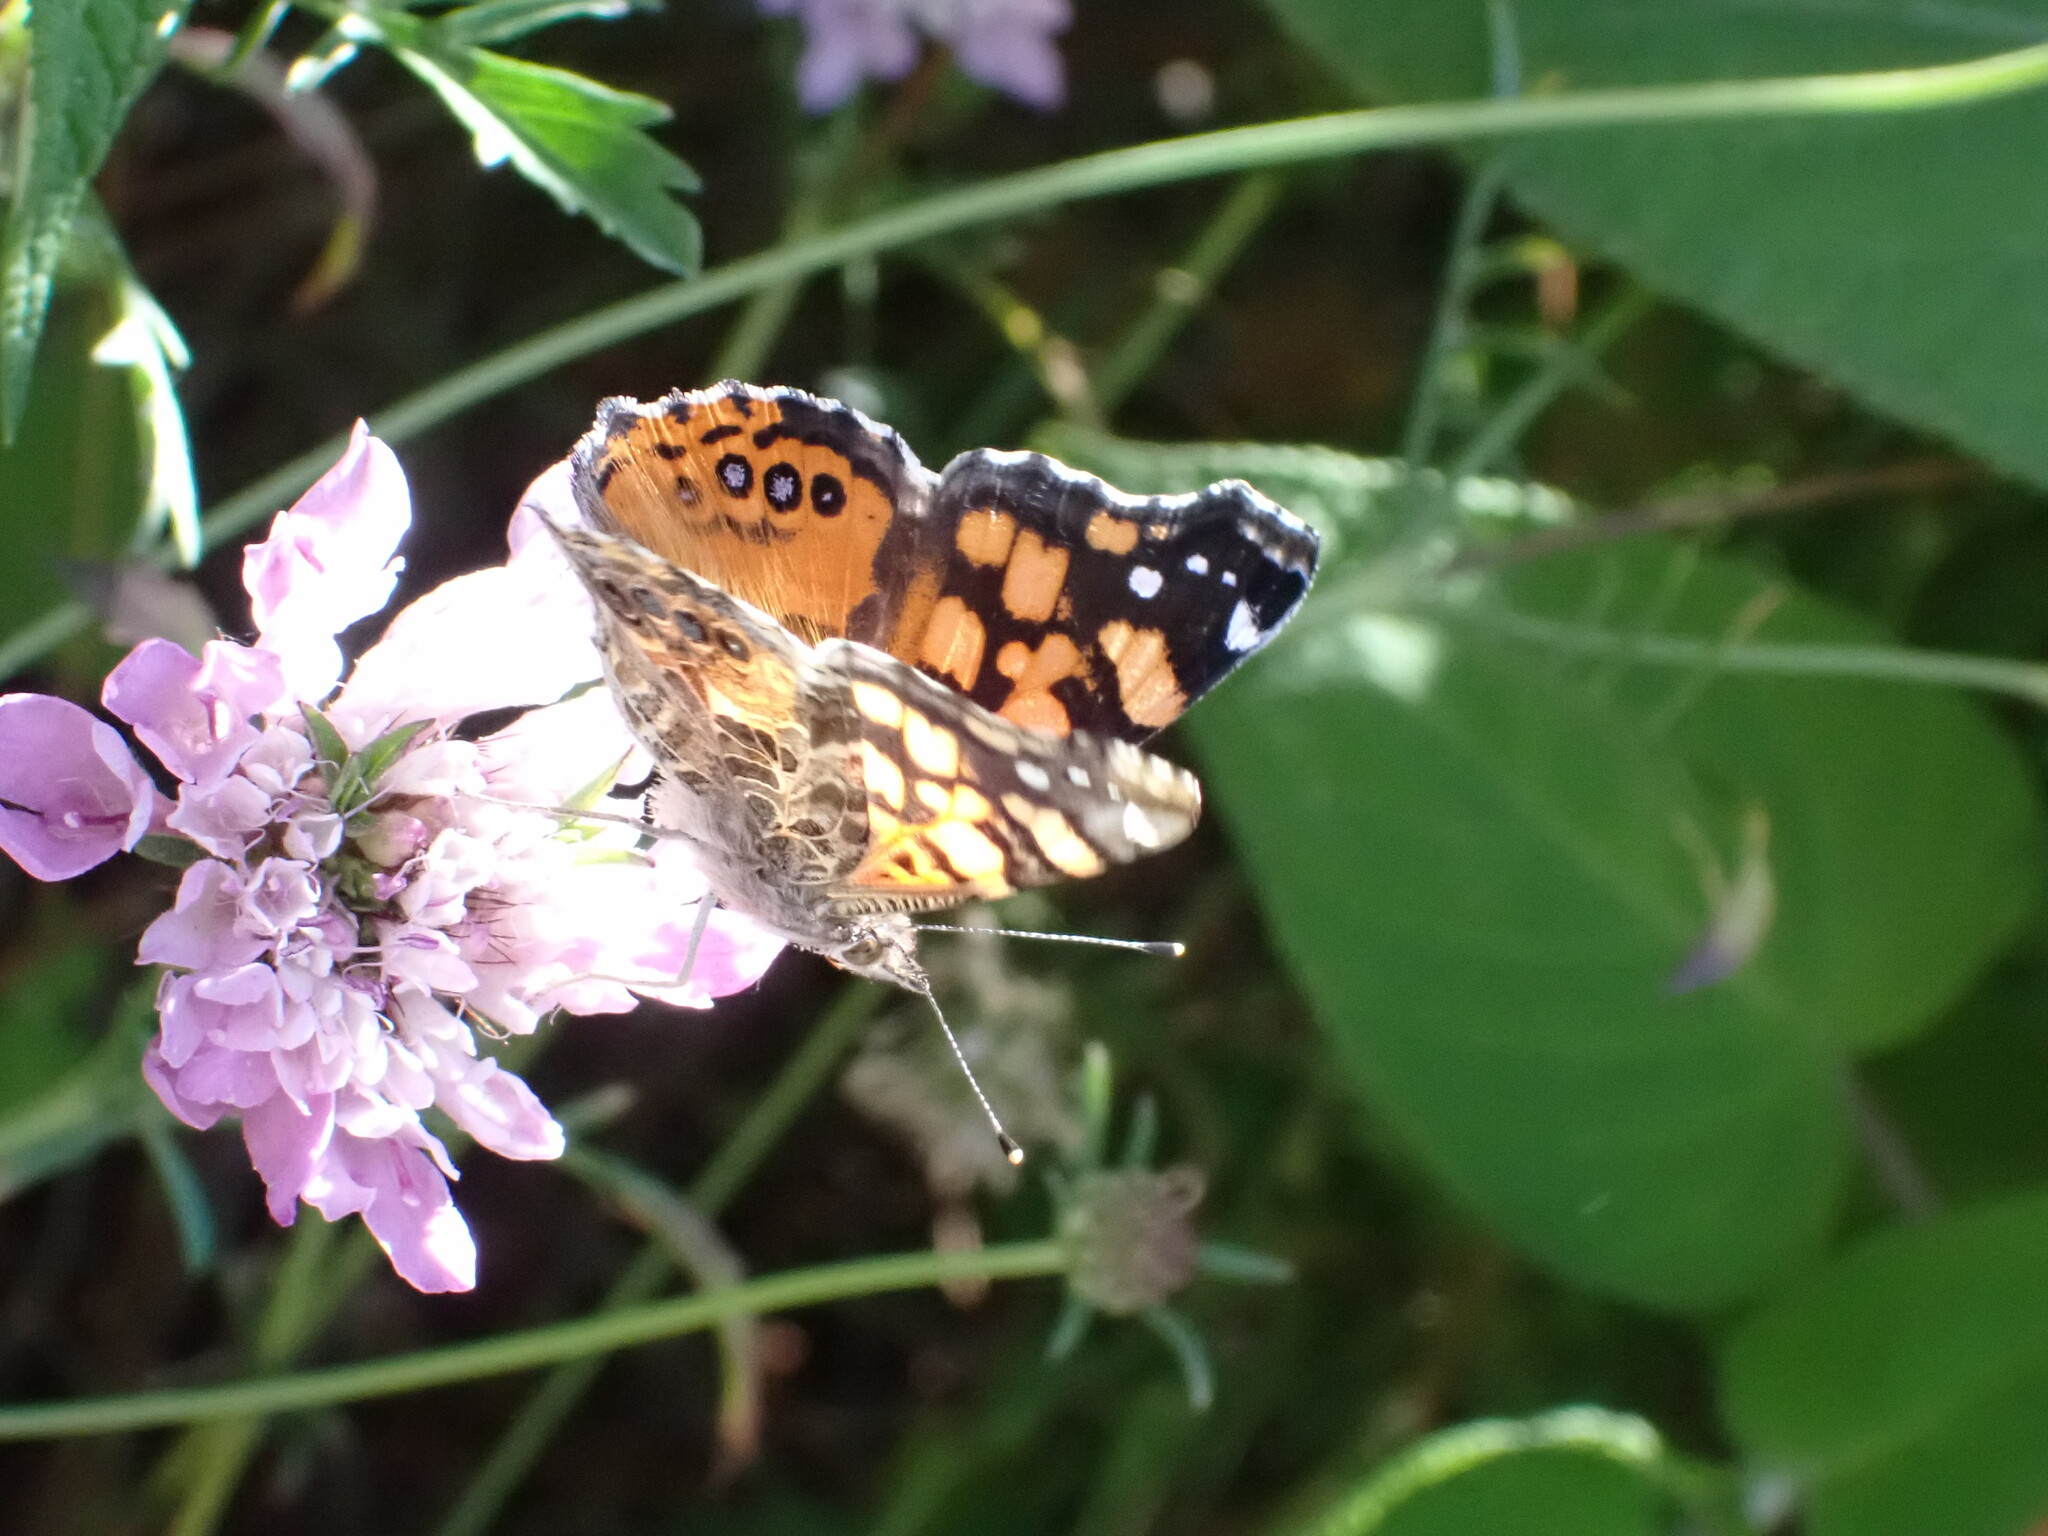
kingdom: Animalia
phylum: Arthropoda
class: Insecta
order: Lepidoptera
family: Nymphalidae
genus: Vanessa
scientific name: Vanessa annabella
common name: West coast lady
